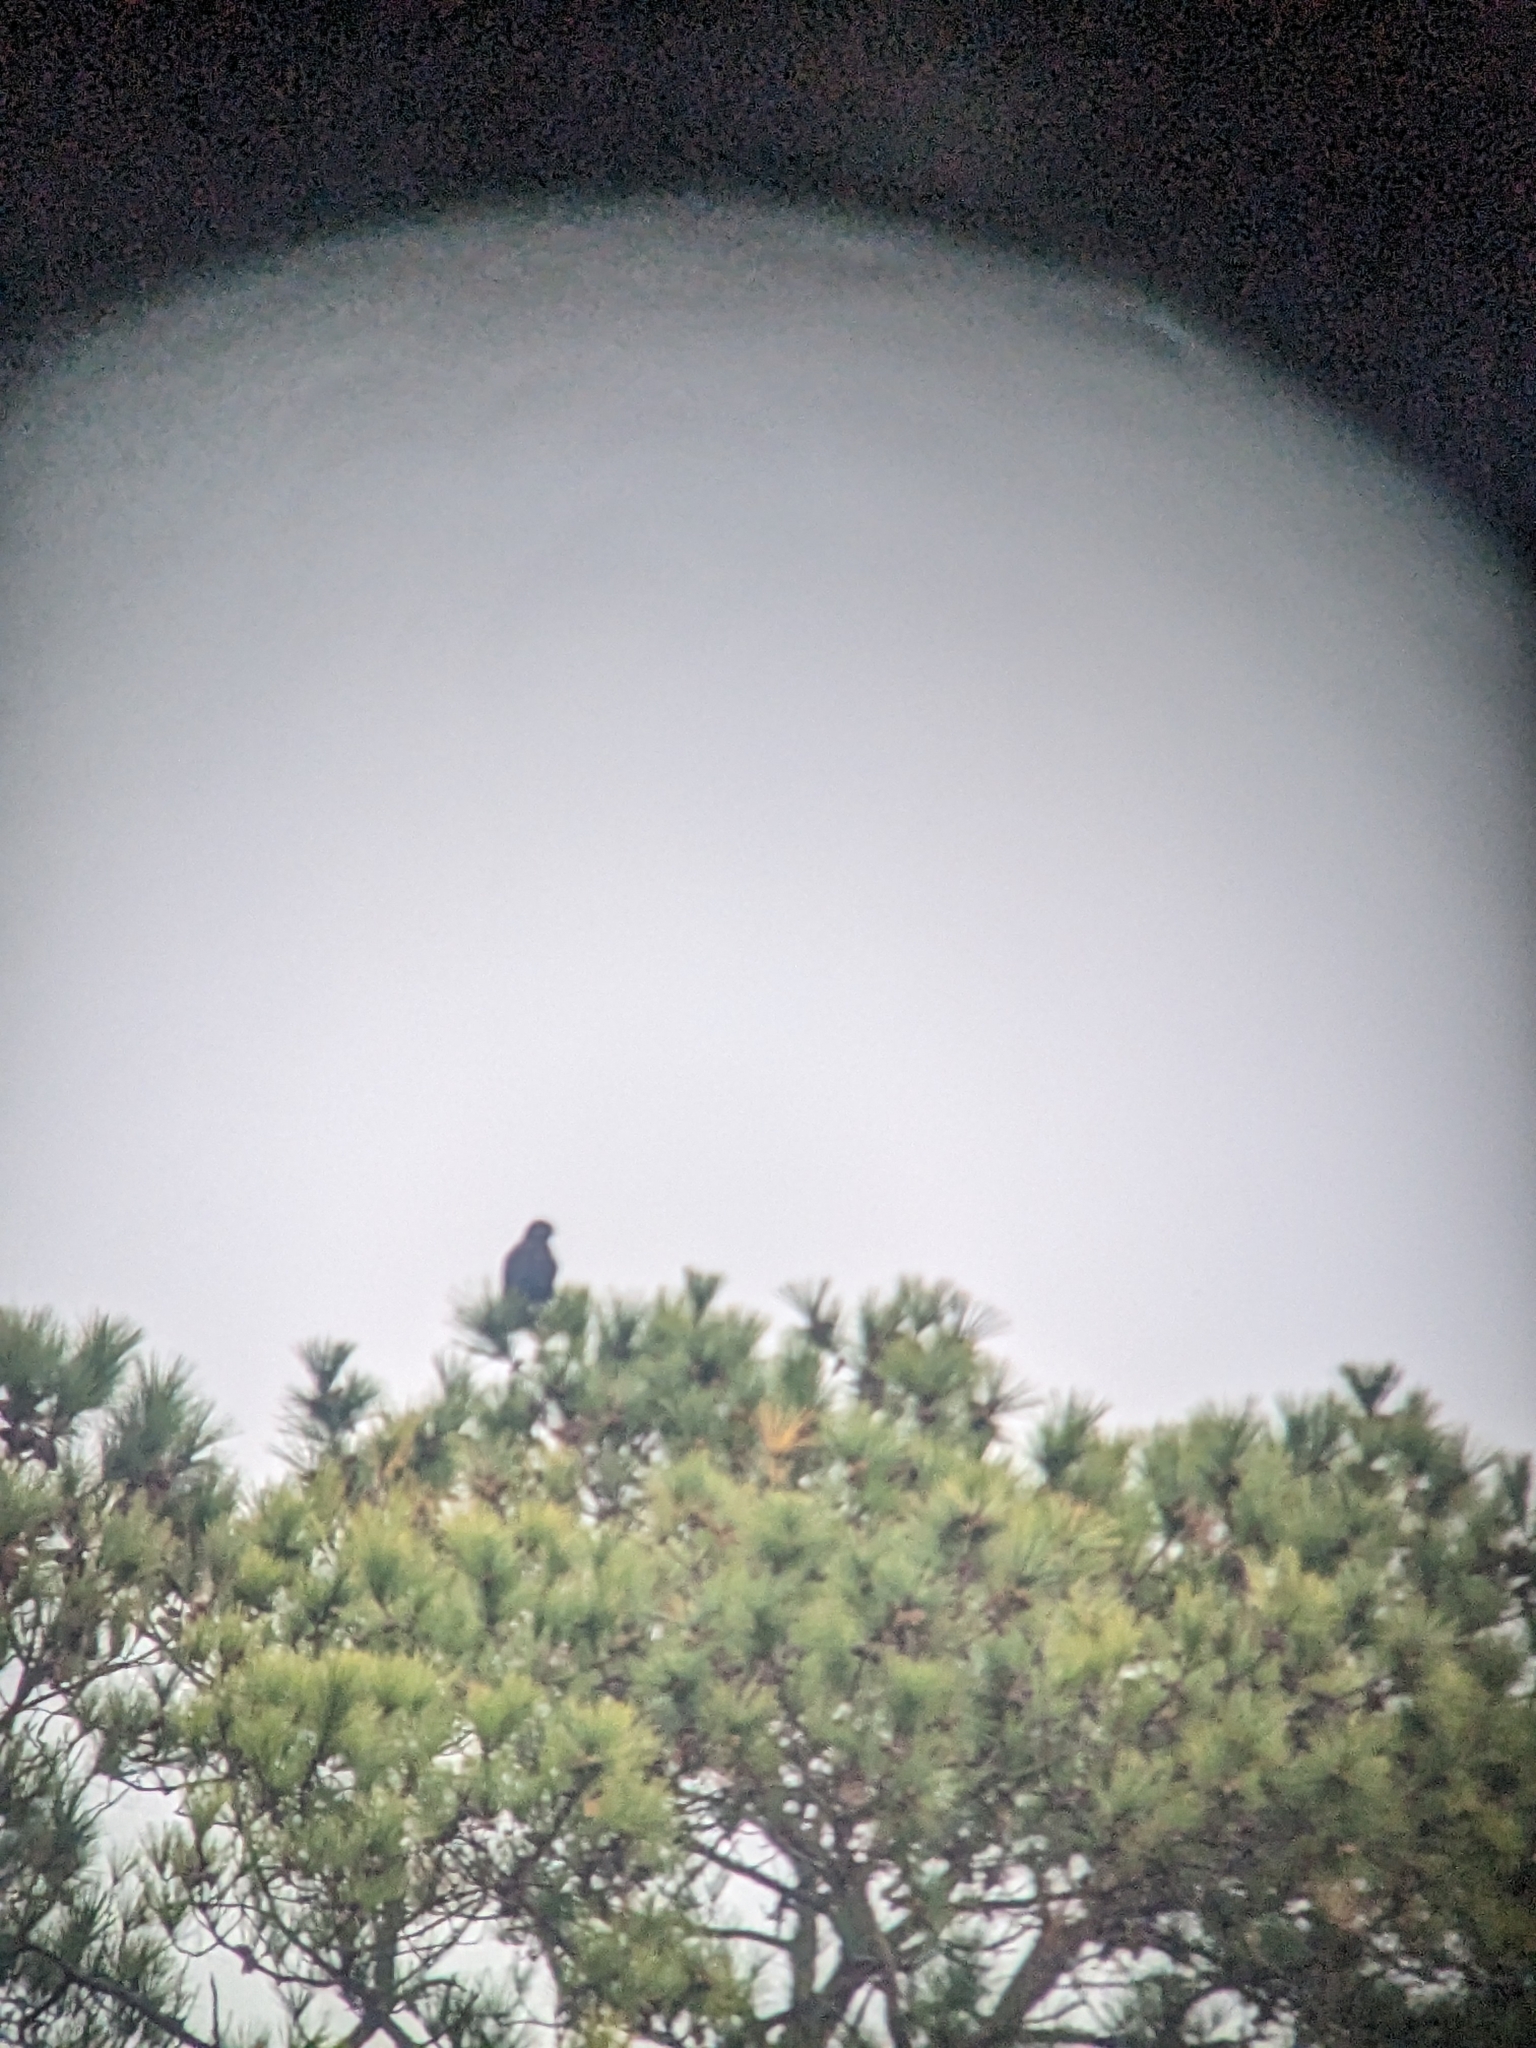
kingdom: Animalia
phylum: Chordata
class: Aves
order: Accipitriformes
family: Accipitridae
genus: Buteo
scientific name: Buteo lagopus
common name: Rough-legged buzzard
